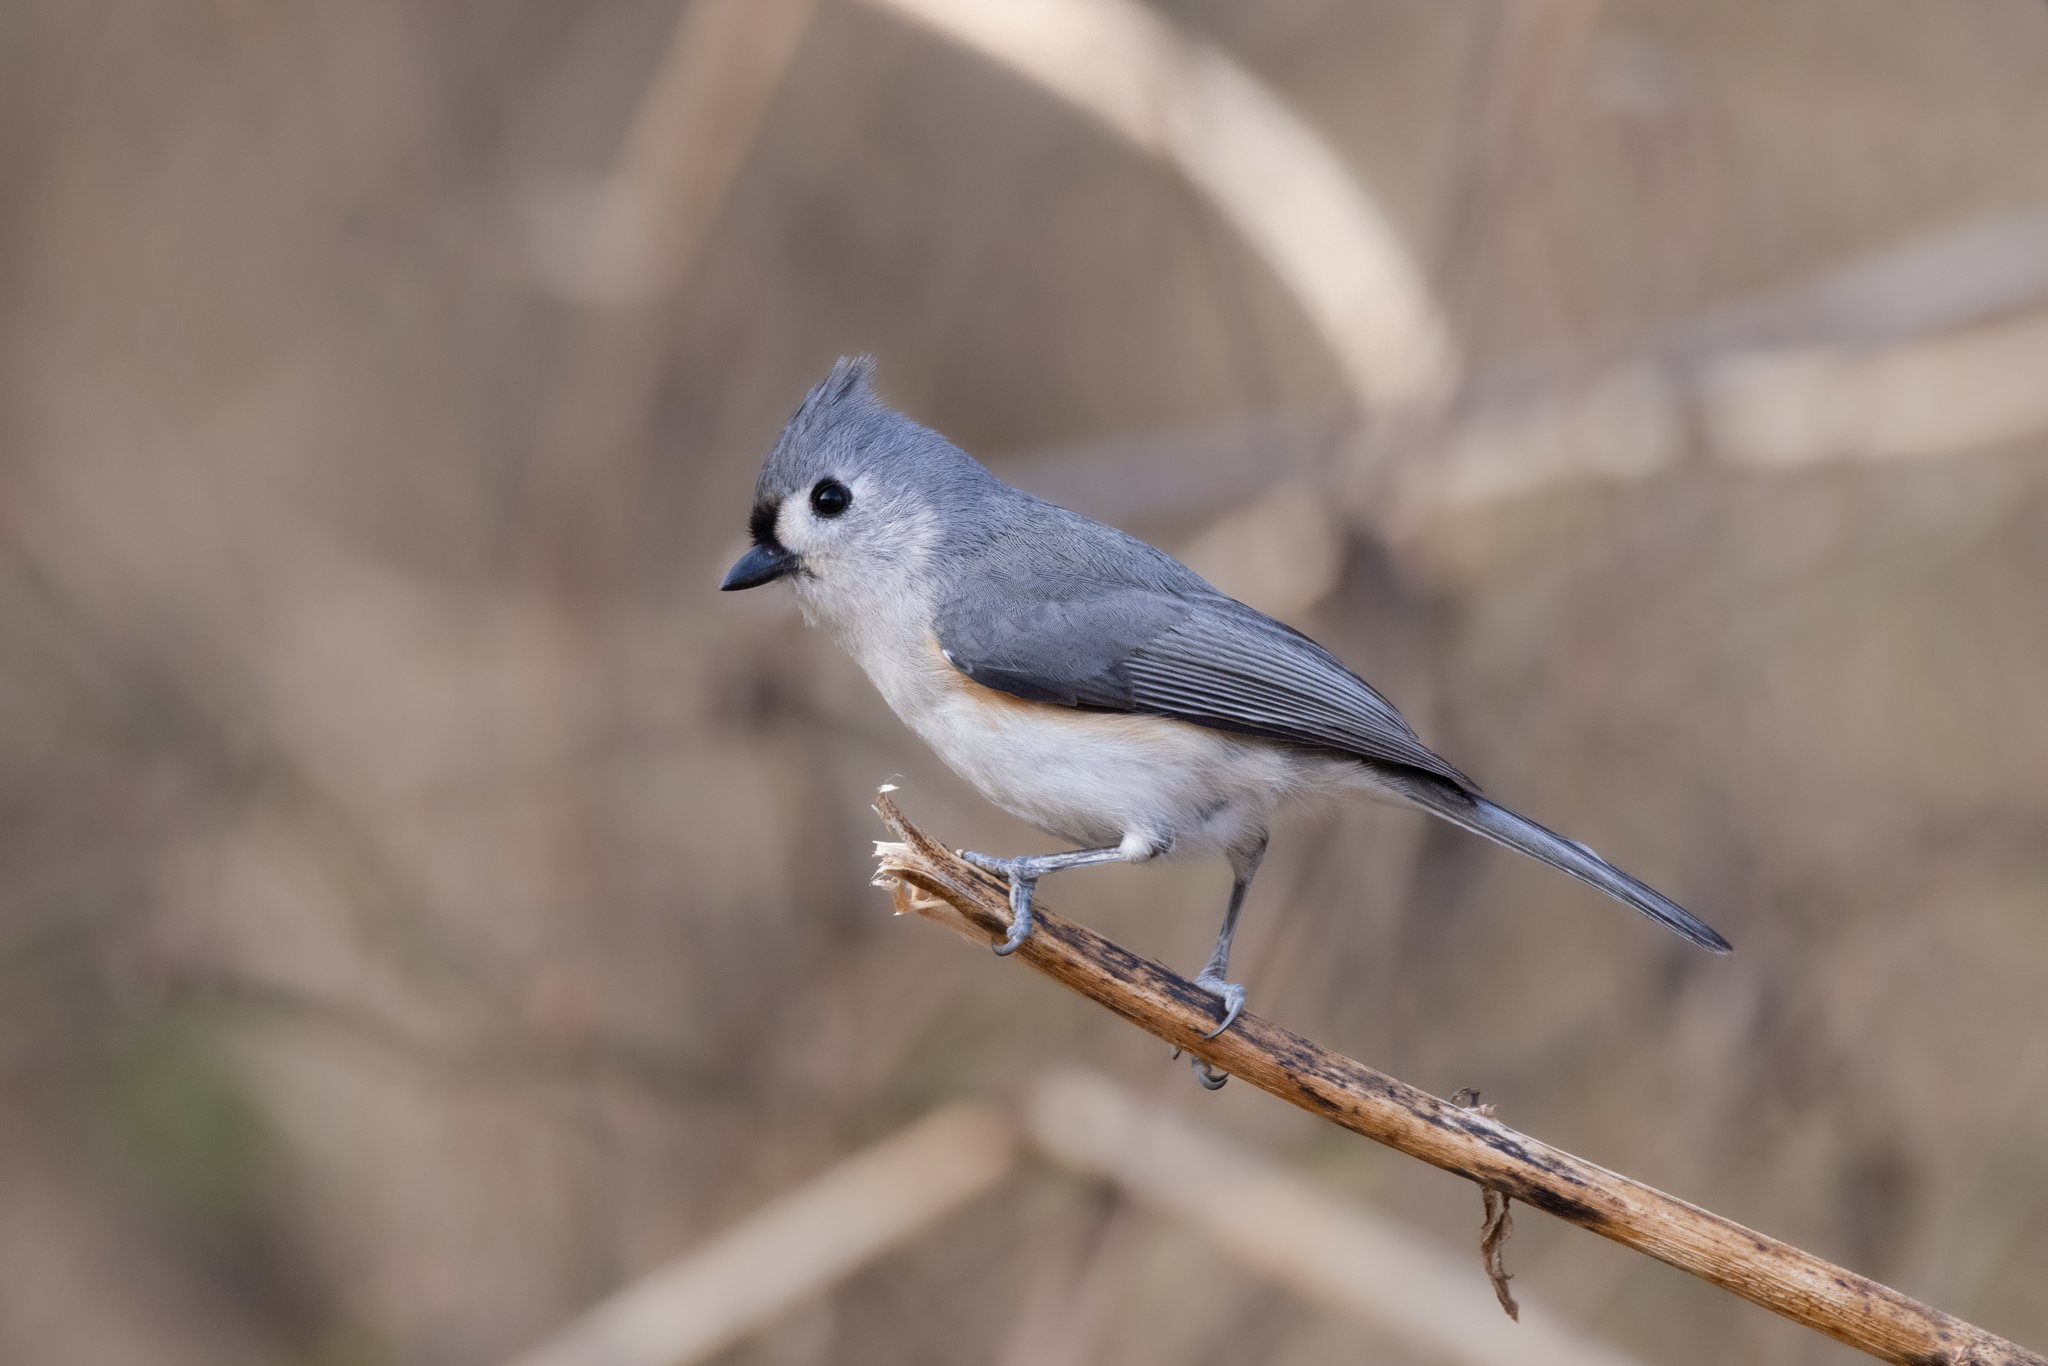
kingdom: Animalia
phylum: Chordata
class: Aves
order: Passeriformes
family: Paridae
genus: Baeolophus
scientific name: Baeolophus bicolor
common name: Tufted titmouse
